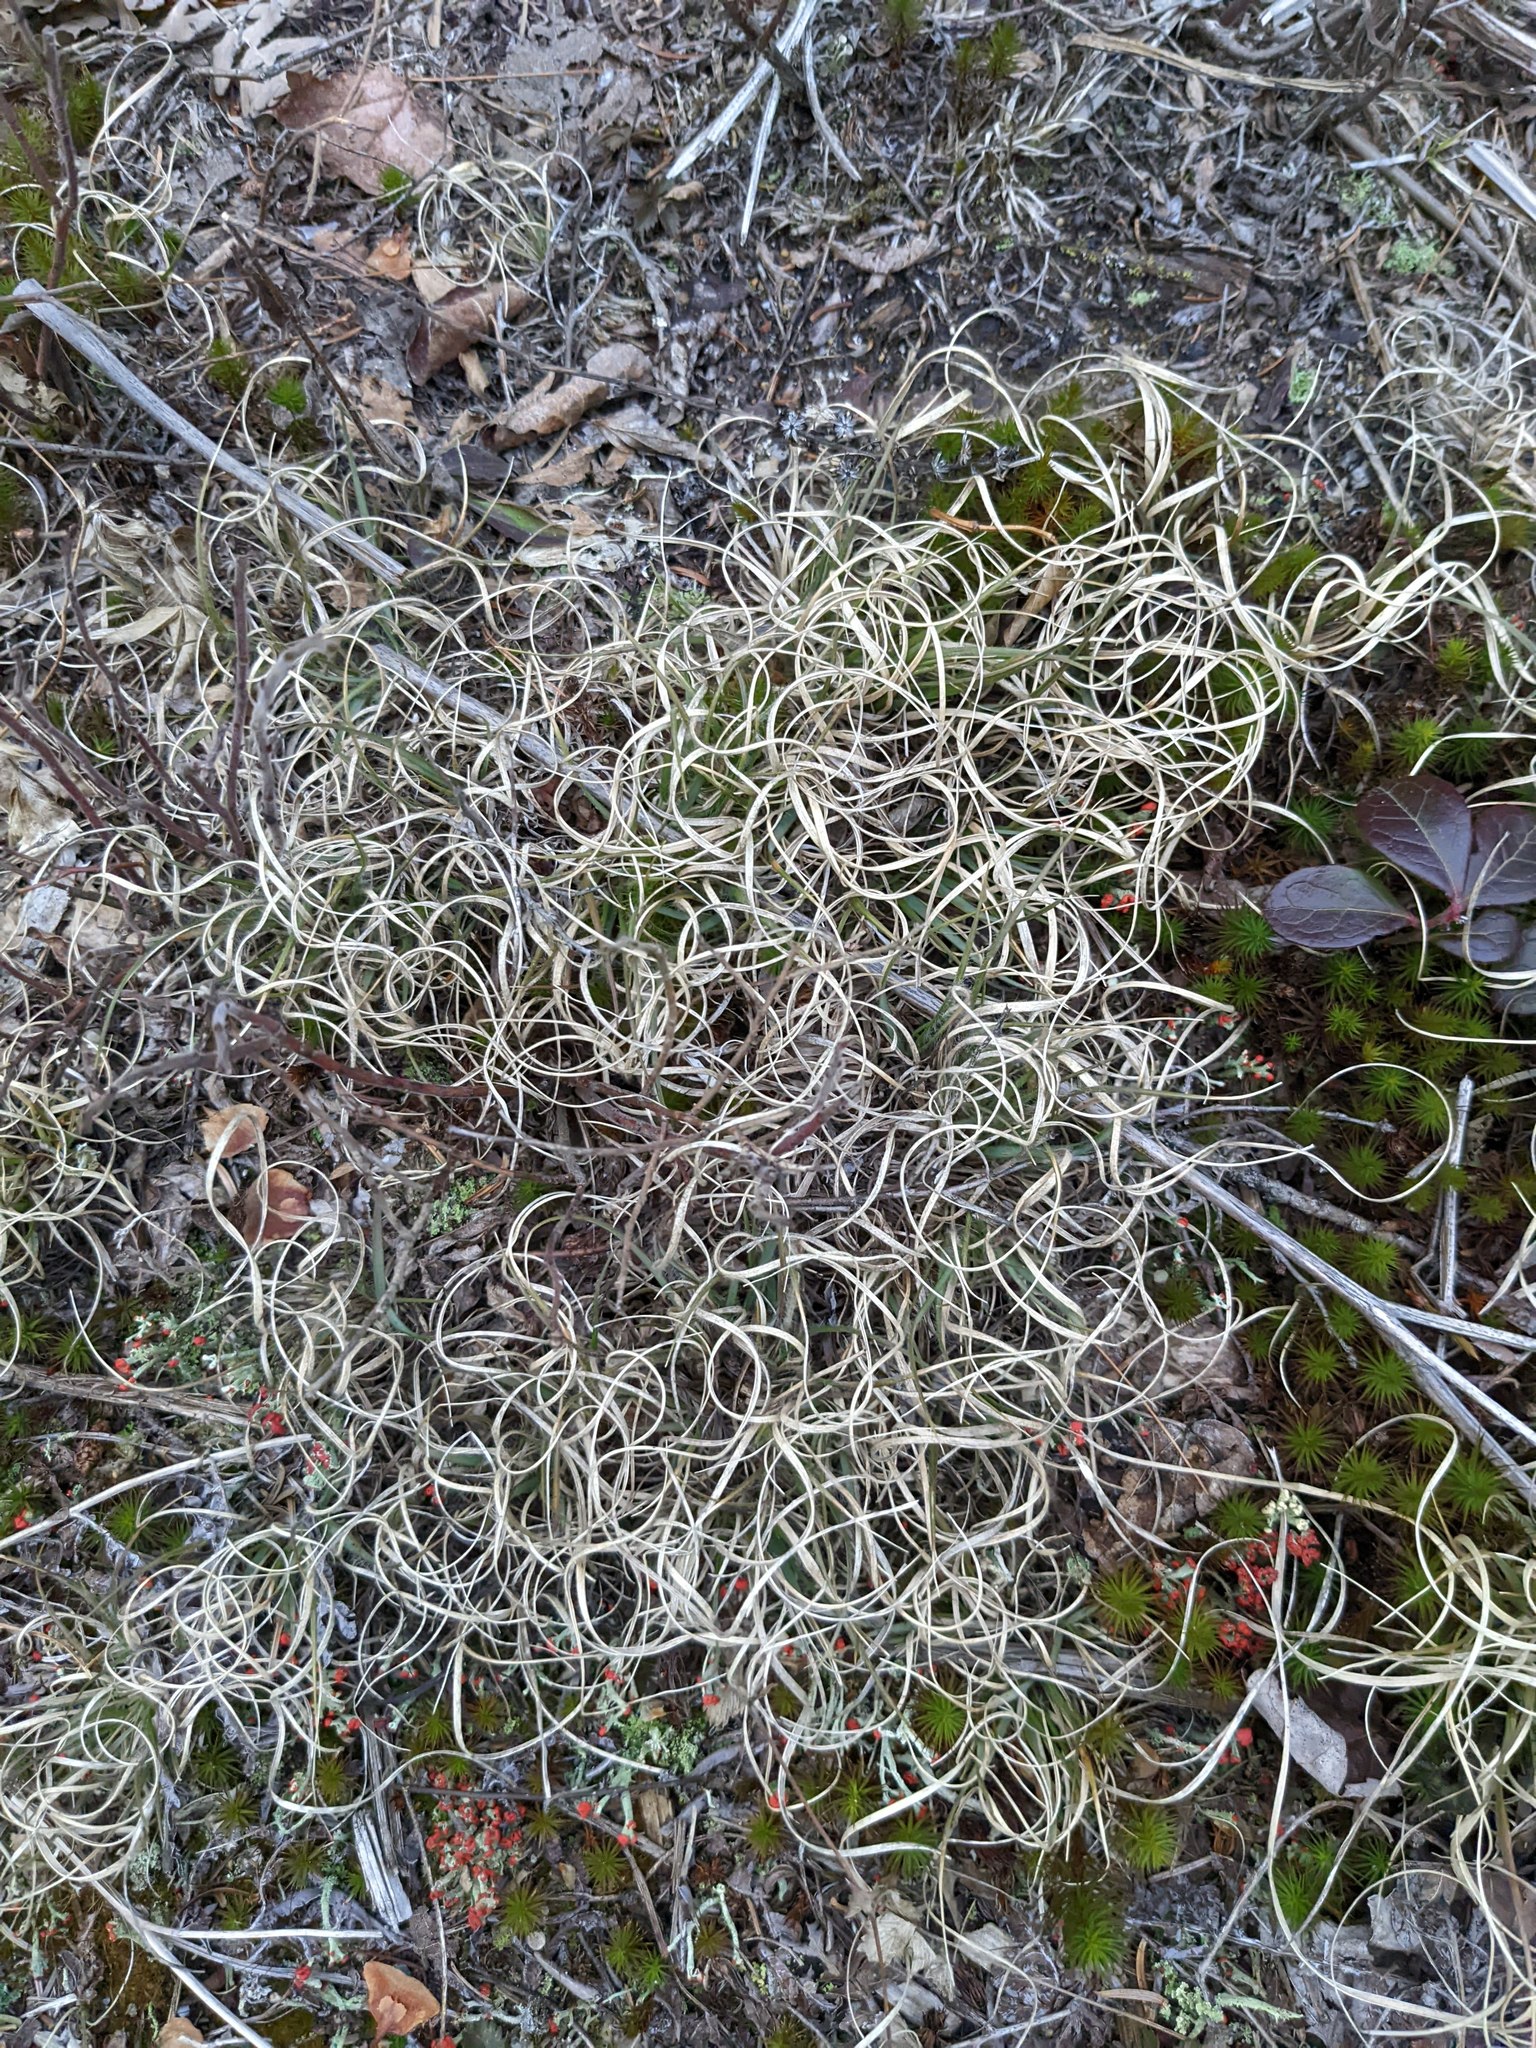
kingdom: Plantae
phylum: Tracheophyta
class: Liliopsida
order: Poales
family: Poaceae
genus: Danthonia
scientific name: Danthonia spicata
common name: Common wild oatgrass
